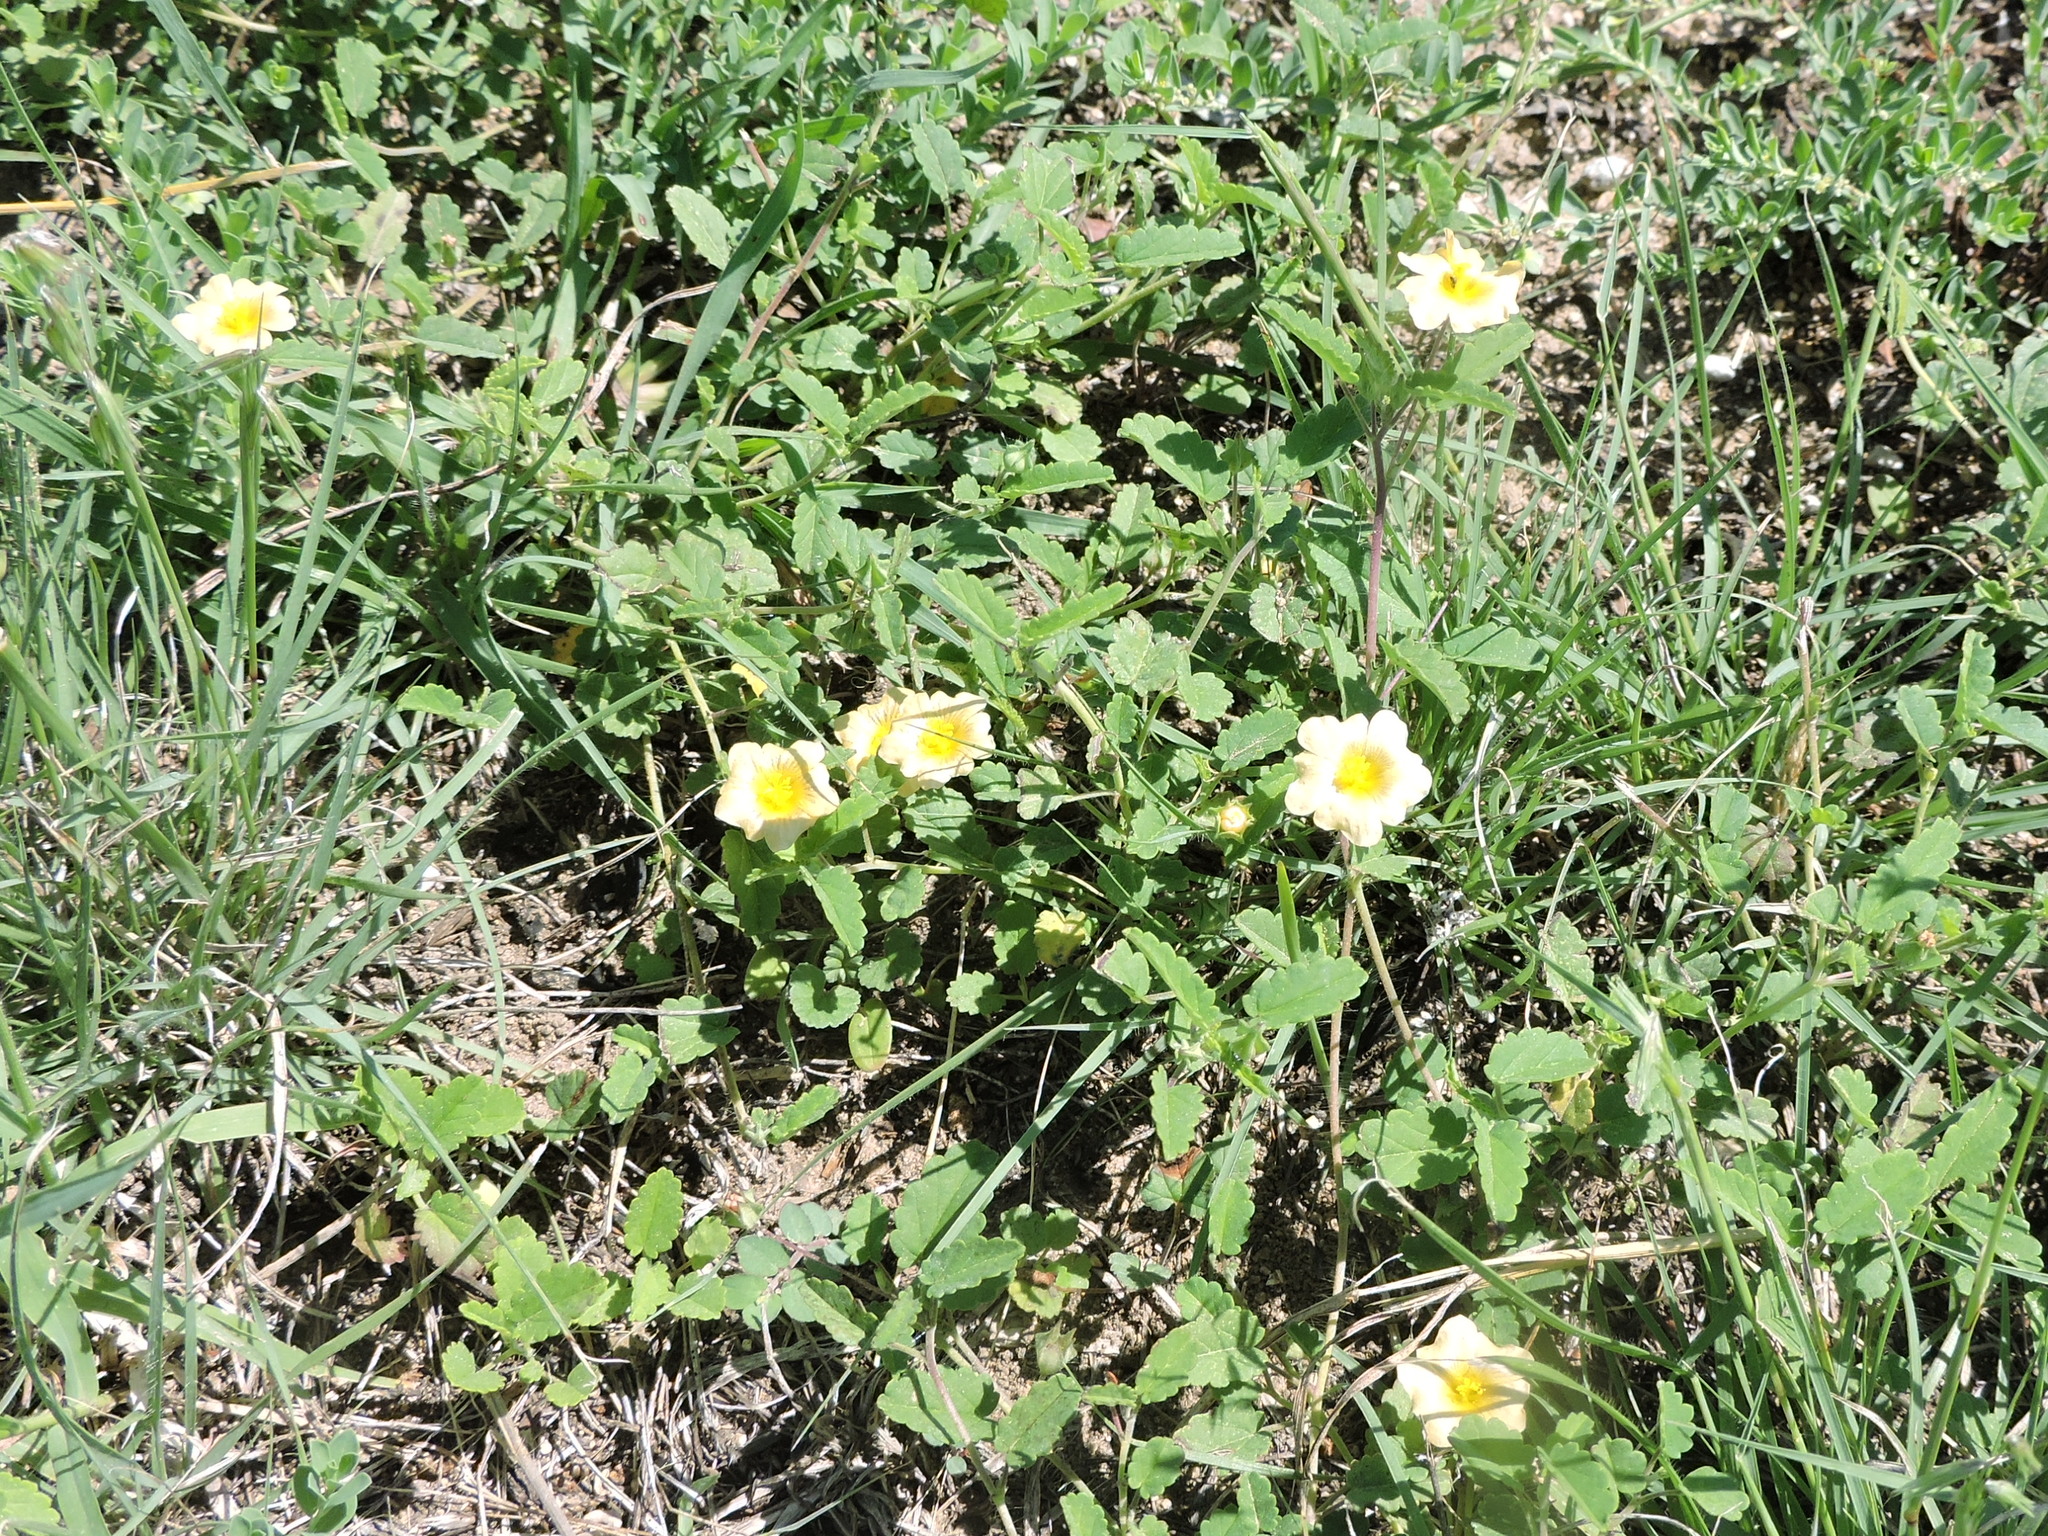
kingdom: Plantae
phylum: Tracheophyta
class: Magnoliopsida
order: Malvales
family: Malvaceae
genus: Sida
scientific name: Sida abutilifolia
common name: Spreading fanpetals
